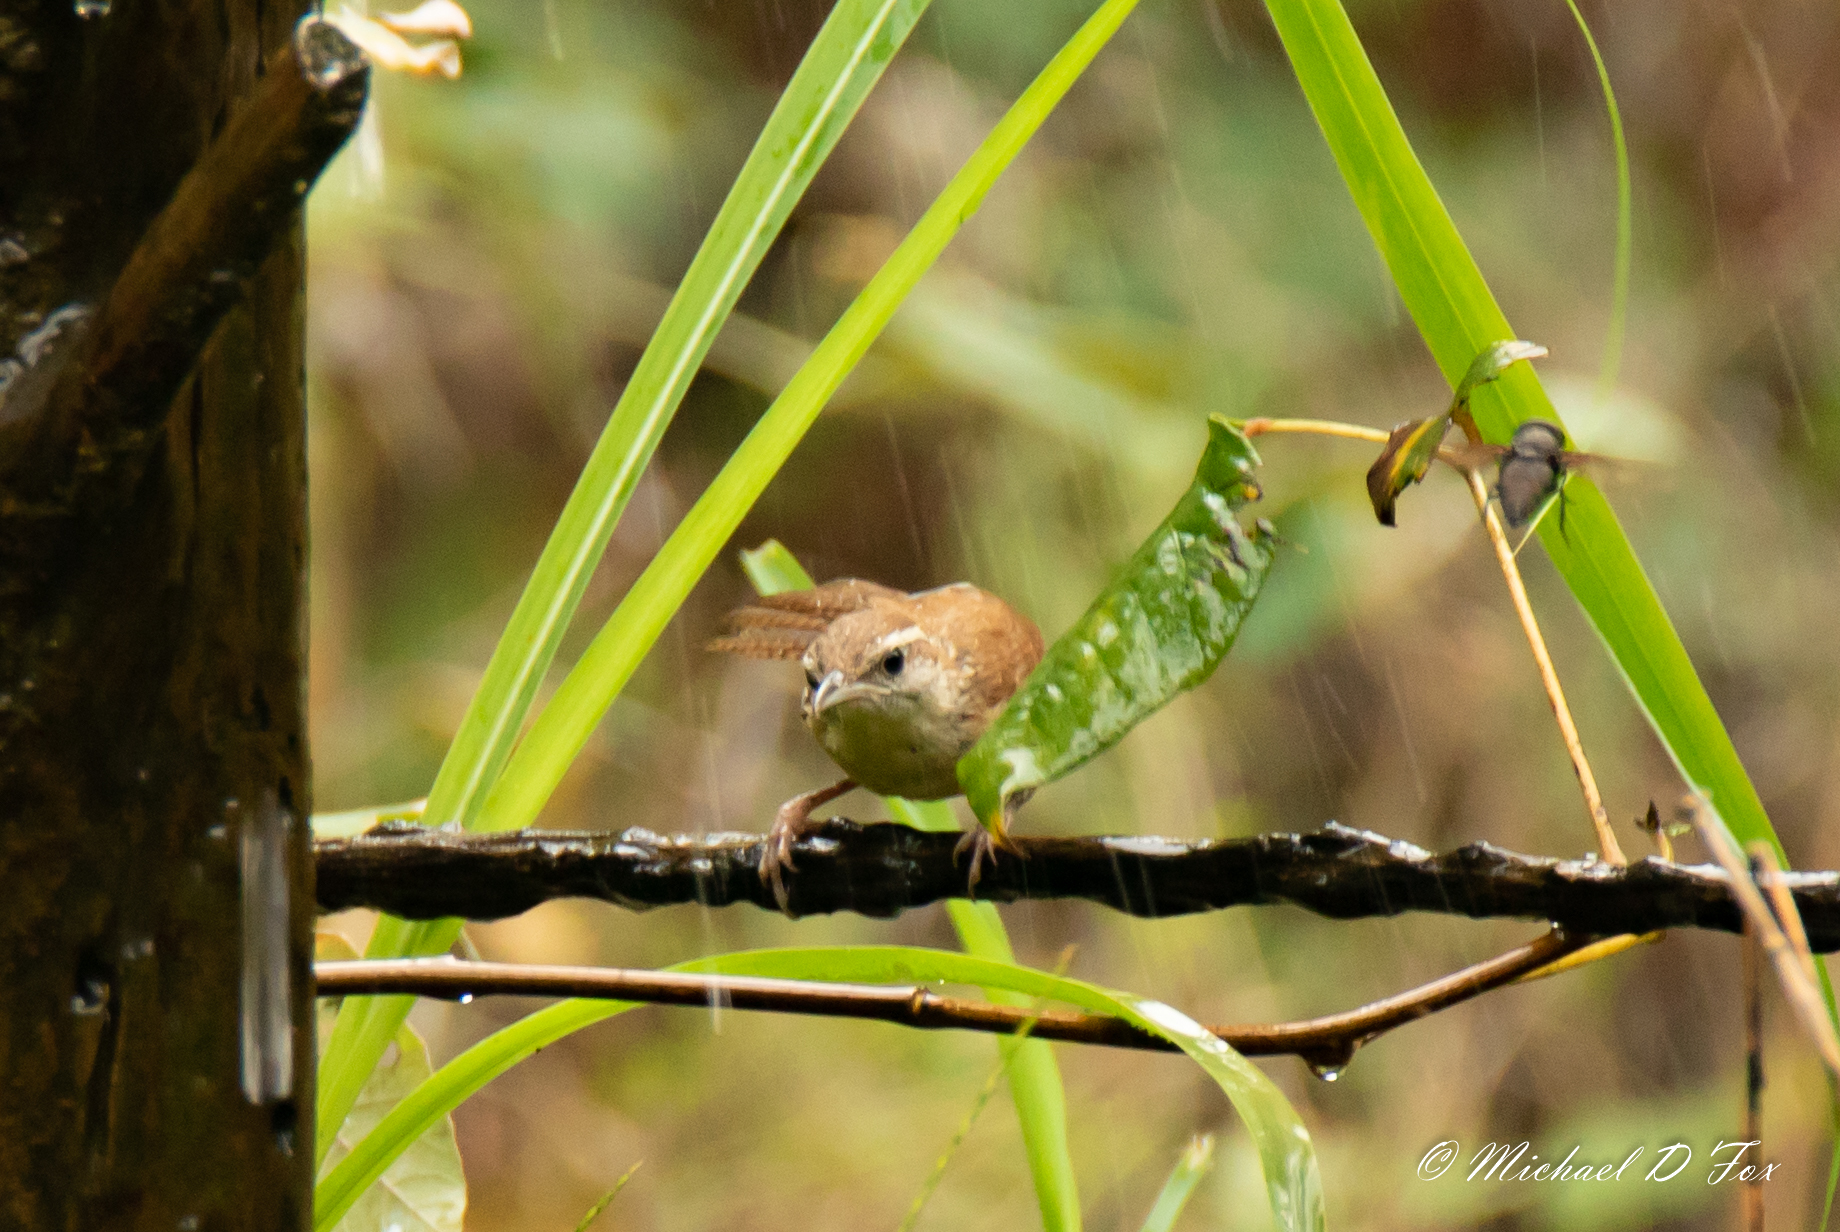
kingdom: Animalia
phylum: Chordata
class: Aves
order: Passeriformes
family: Troglodytidae
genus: Thryothorus
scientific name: Thryothorus ludovicianus
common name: Carolina wren
